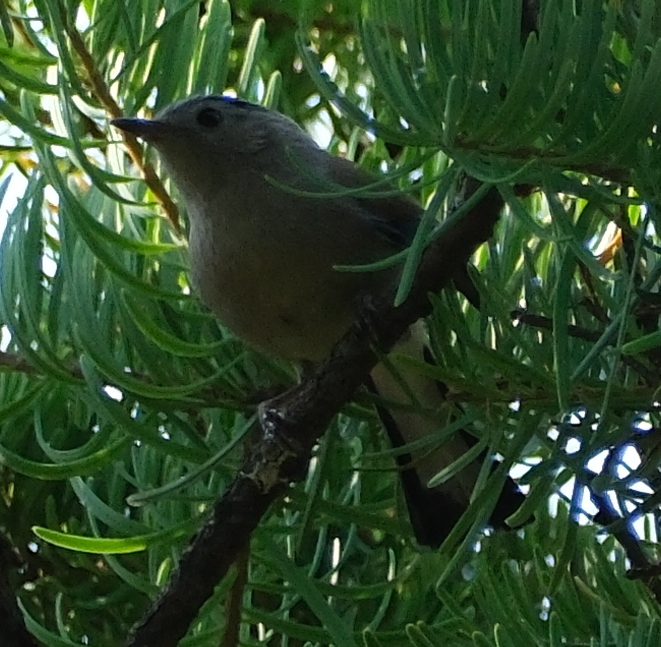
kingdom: Animalia
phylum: Chordata
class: Aves
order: Passeriformes
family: Leiothrichidae
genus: Minla
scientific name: Minla cyanouroptera
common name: Blue-winged minla
